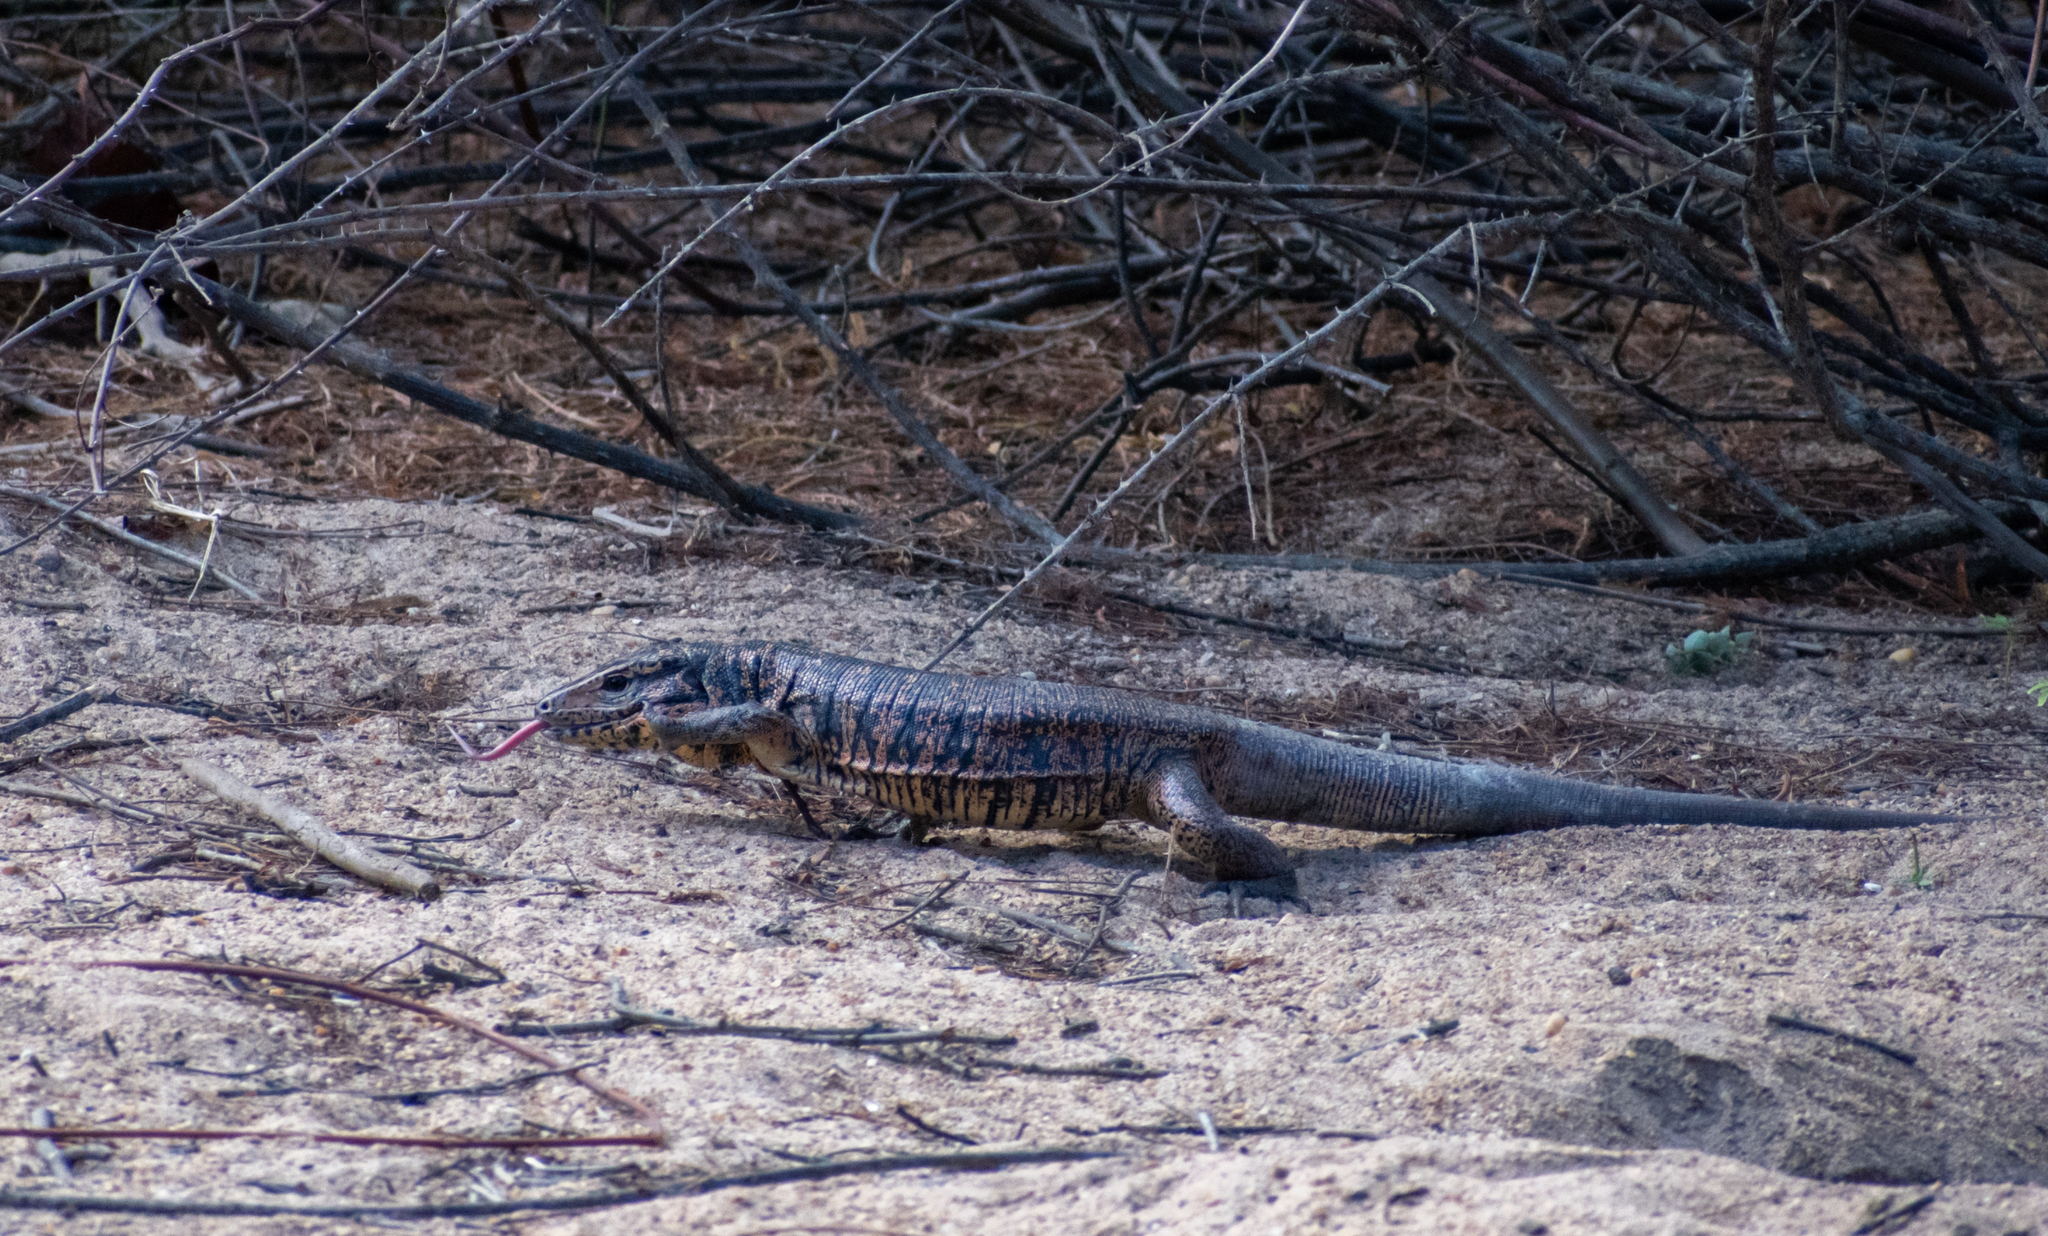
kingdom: Animalia
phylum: Chordata
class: Squamata
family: Teiidae
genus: Tupinambis
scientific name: Tupinambis teguixin
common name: Black tegu
